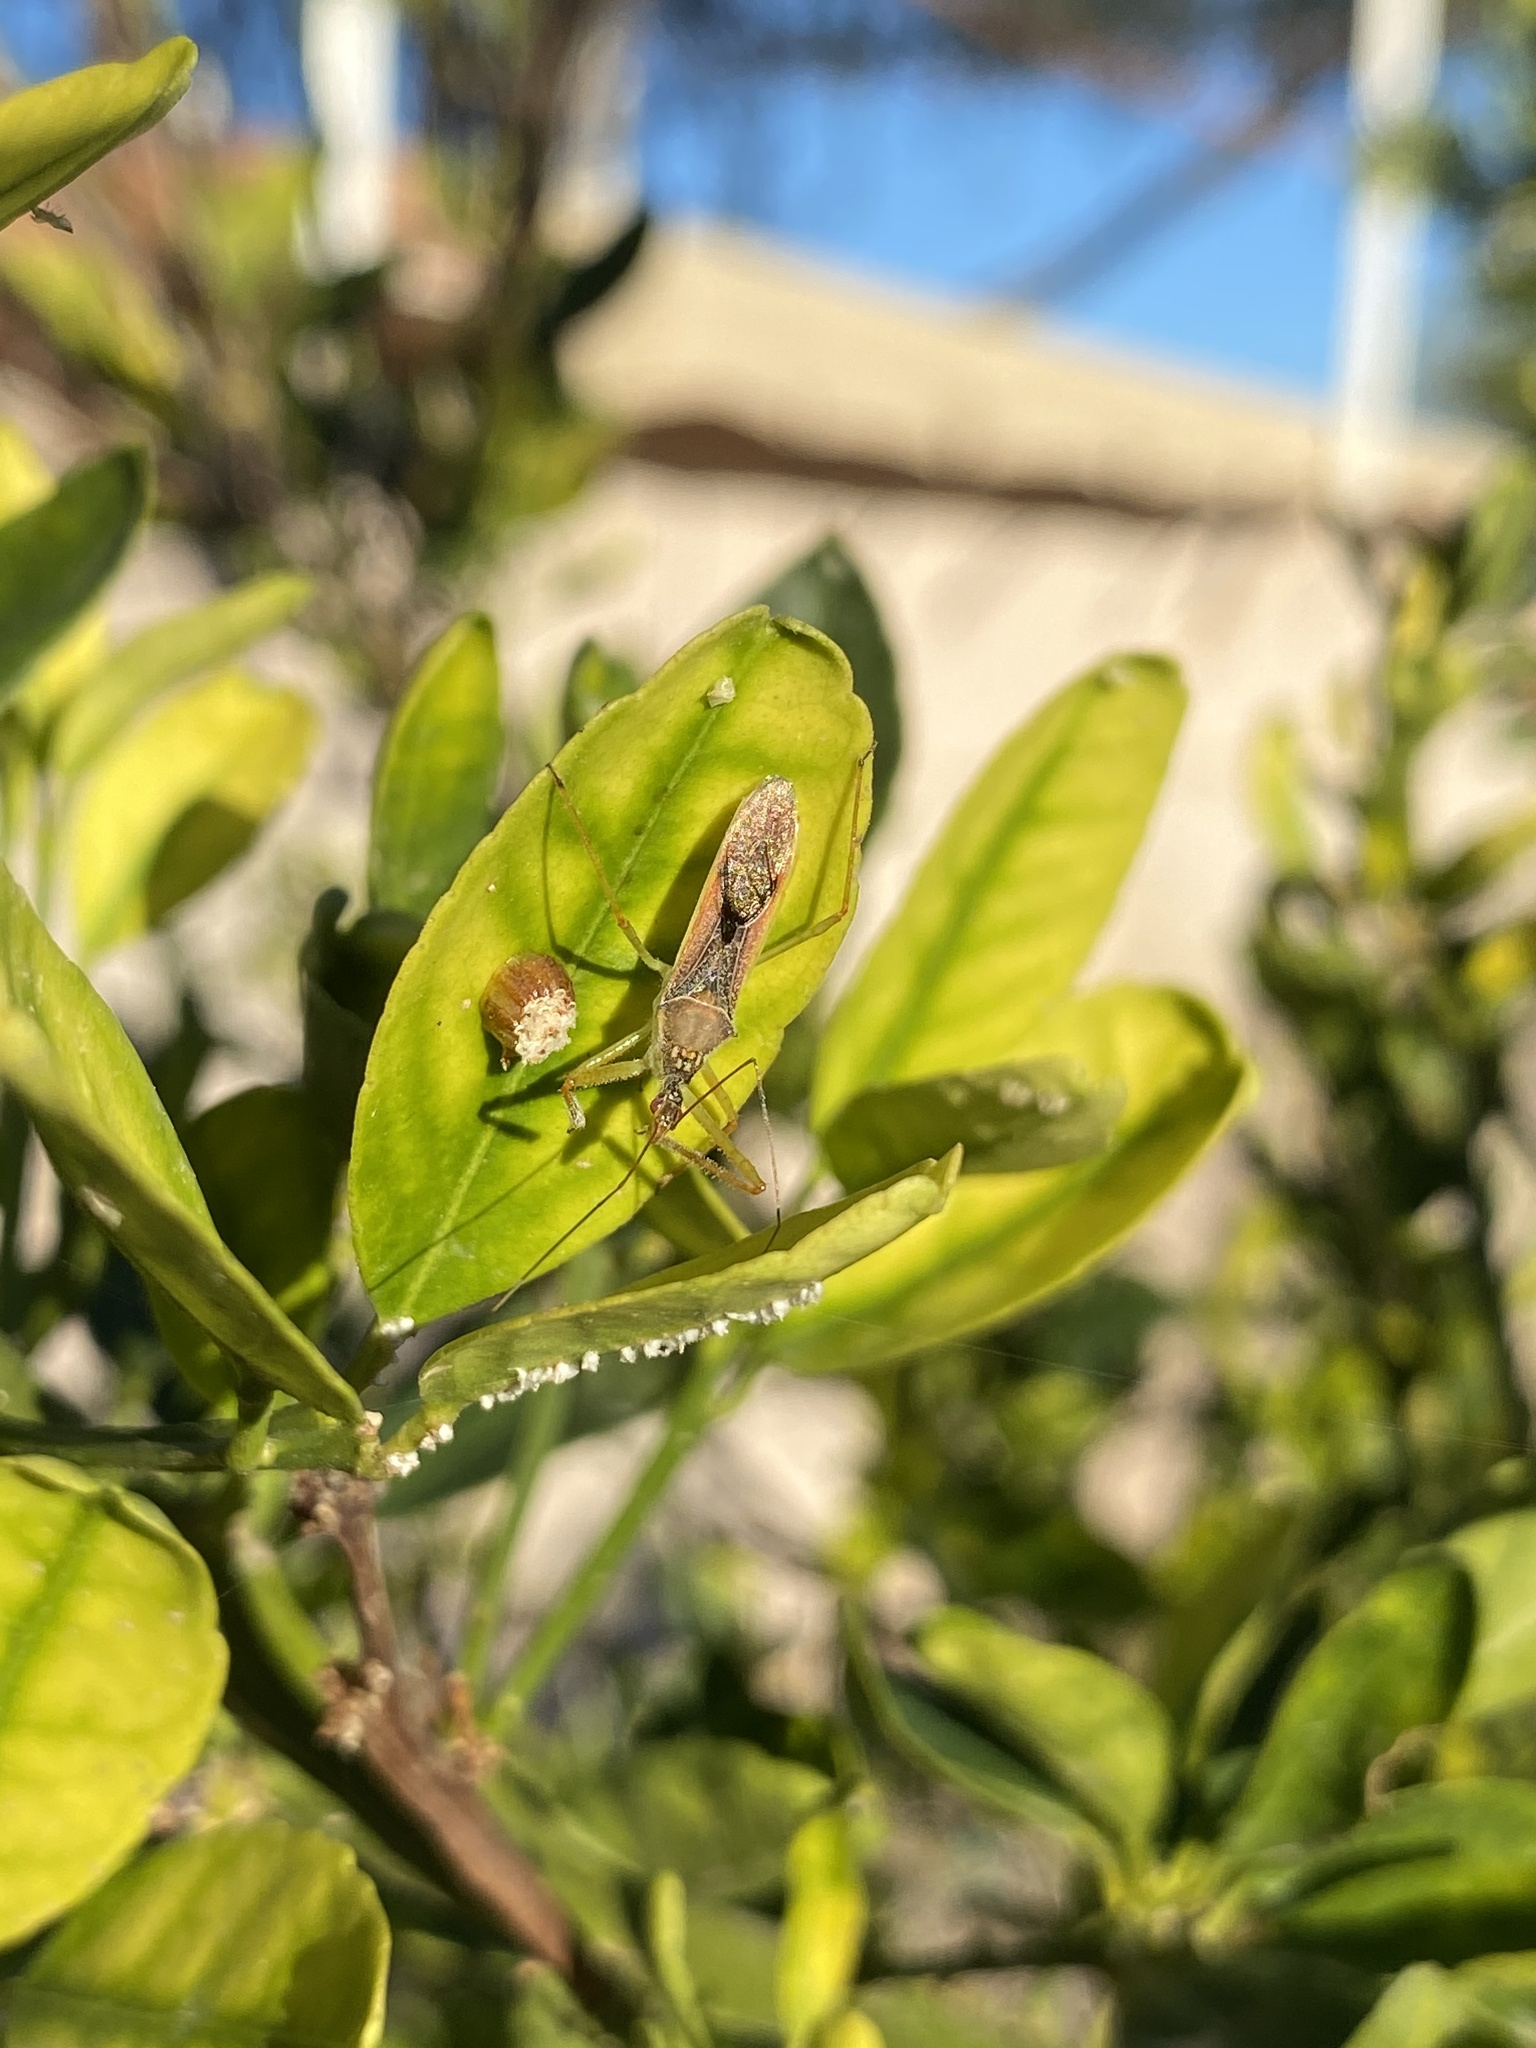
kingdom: Animalia
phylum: Arthropoda
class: Insecta
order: Hemiptera
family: Reduviidae
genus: Zelus
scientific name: Zelus renardii
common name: Assassin bug
